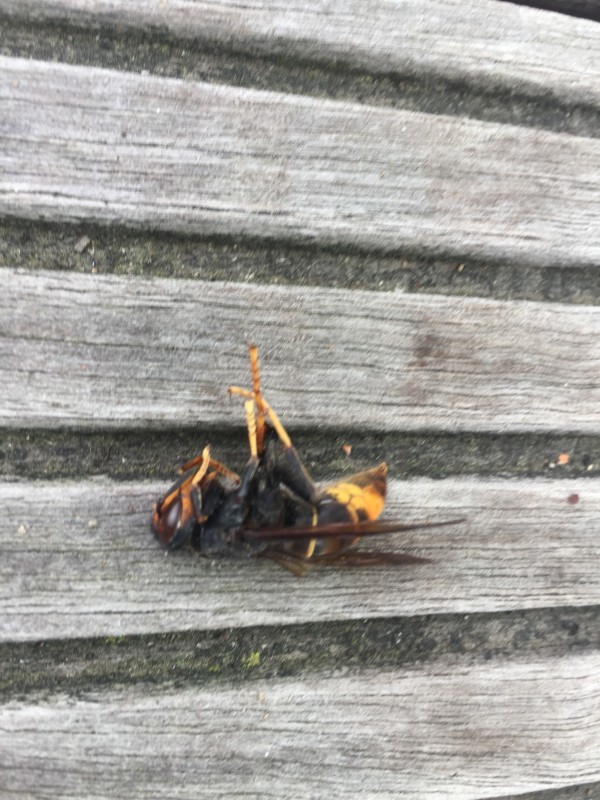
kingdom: Animalia
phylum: Arthropoda
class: Insecta
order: Hymenoptera
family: Vespidae
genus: Vespa
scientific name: Vespa velutina
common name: Asian hornet
